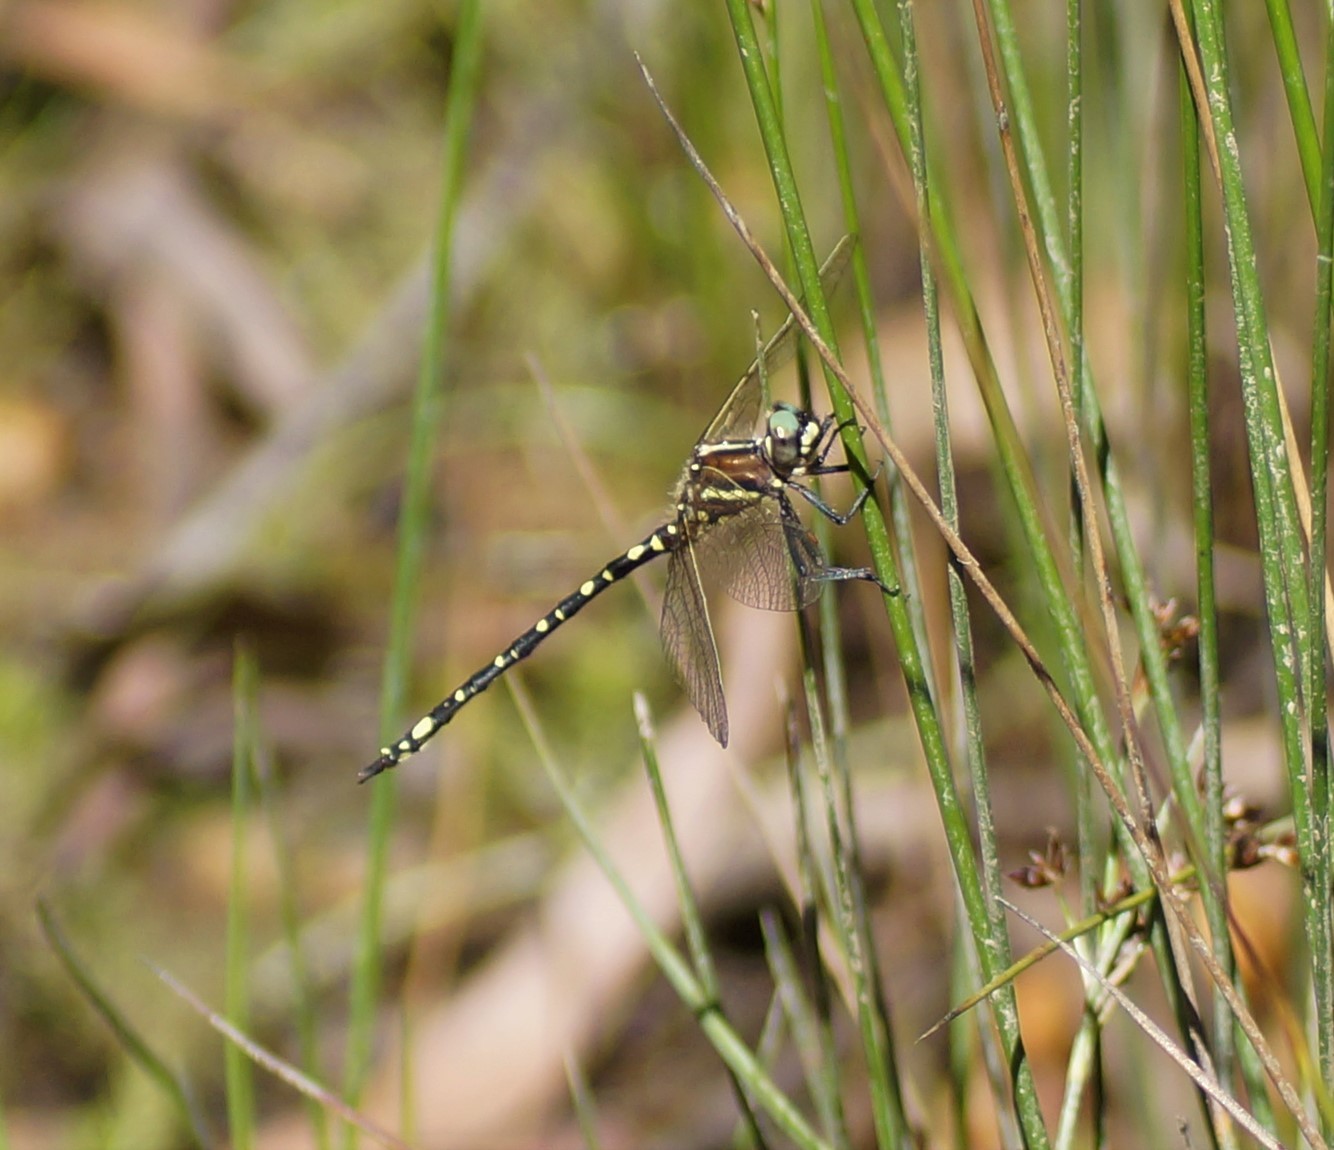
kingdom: Animalia
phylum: Arthropoda
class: Insecta
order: Odonata
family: Synthemistidae
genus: Synthemis
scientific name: Synthemis eustalacta
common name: Swamp tigertail
